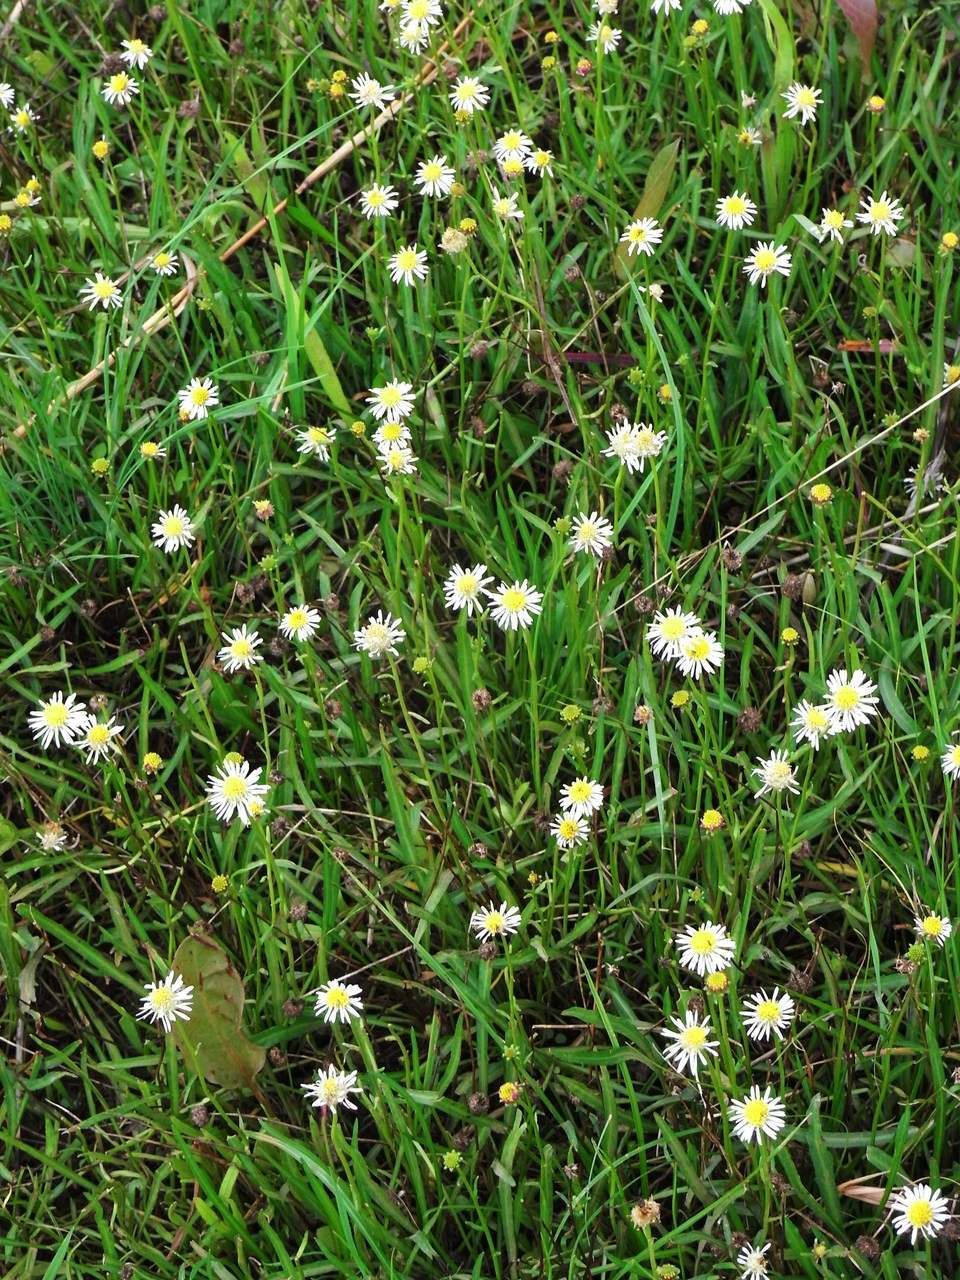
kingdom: Plantae
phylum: Tracheophyta
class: Magnoliopsida
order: Asterales
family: Asteraceae
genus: Calotis
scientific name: Calotis scapigera
